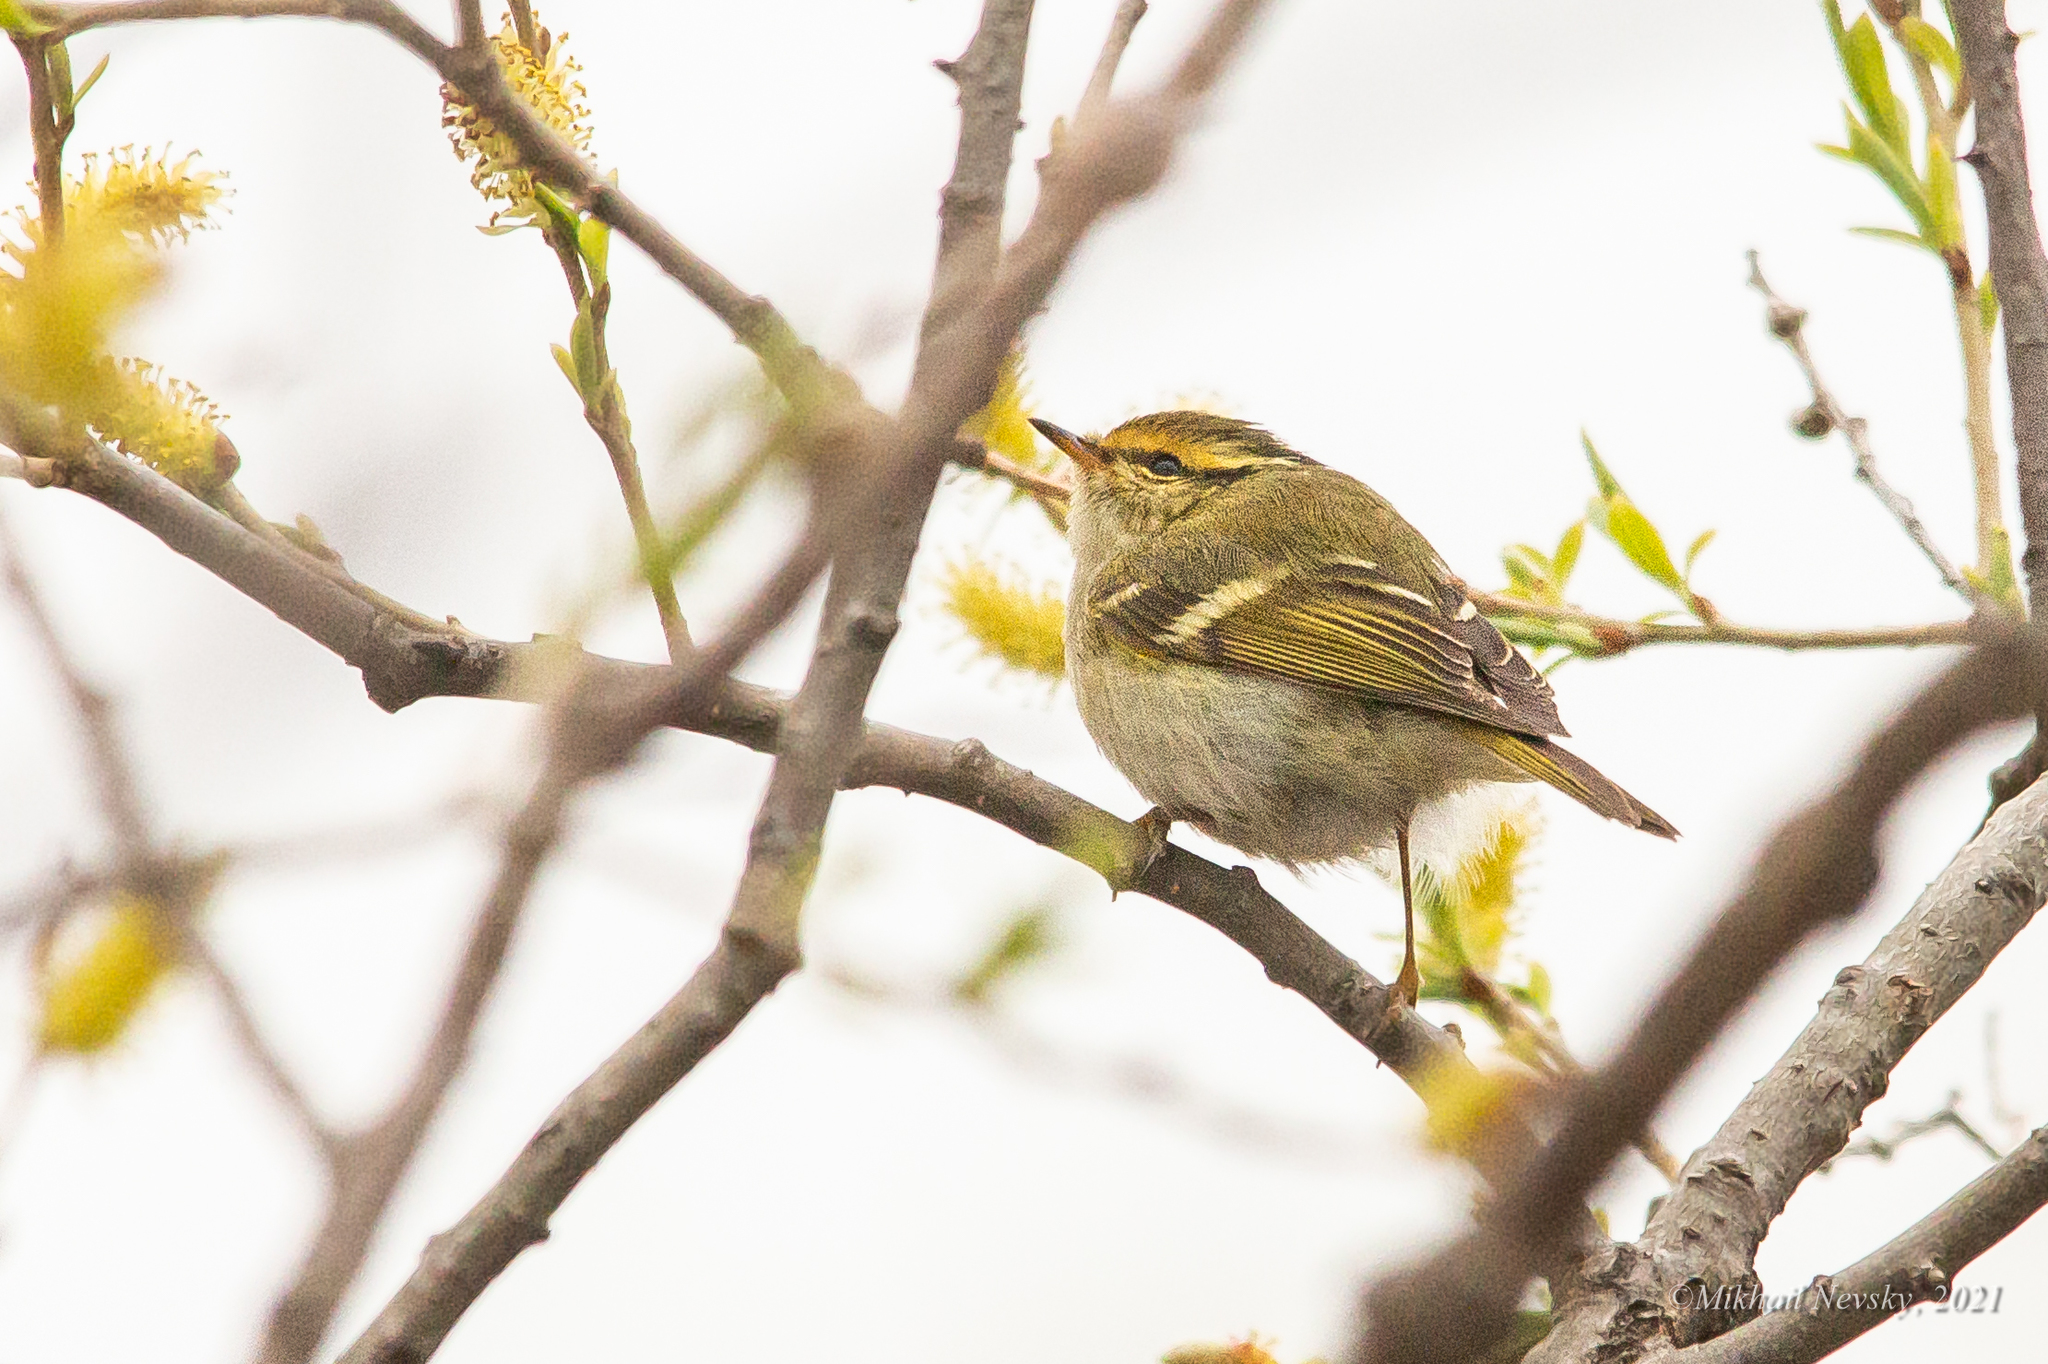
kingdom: Animalia
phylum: Chordata
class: Aves
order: Passeriformes
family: Phylloscopidae
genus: Phylloscopus
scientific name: Phylloscopus proregulus
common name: Pallas's leaf warbler
